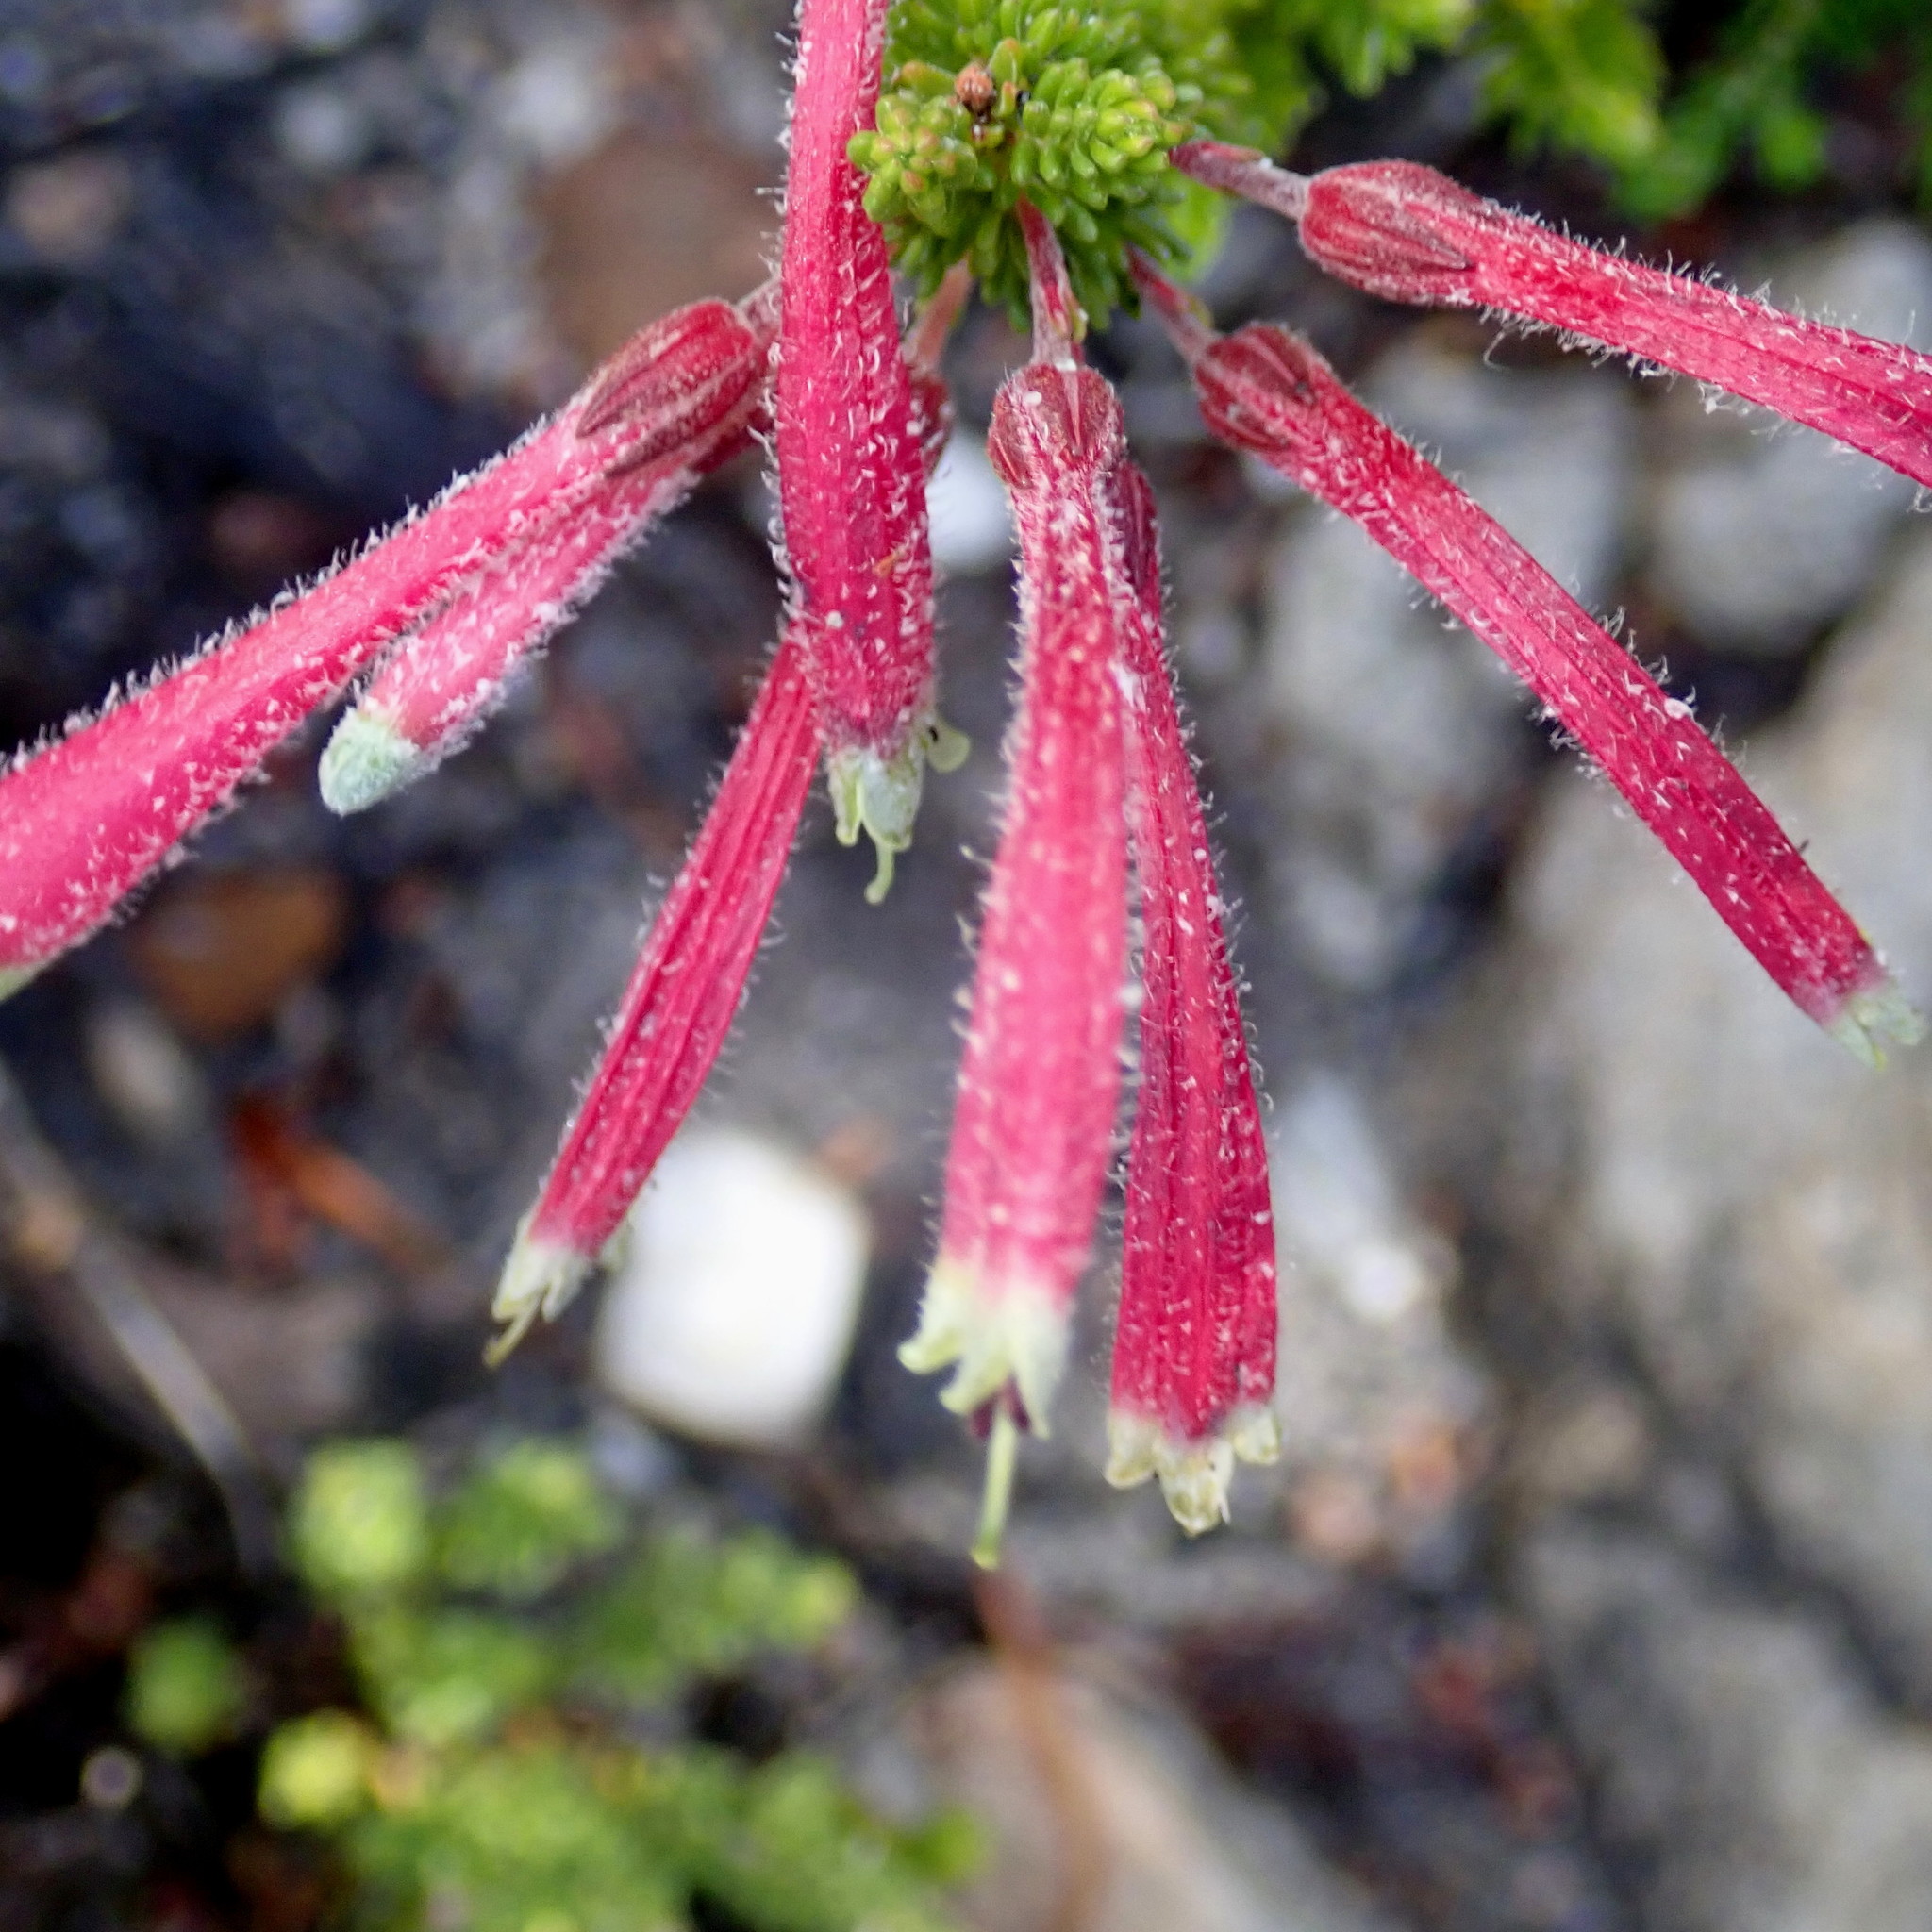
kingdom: Plantae
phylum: Tracheophyta
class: Magnoliopsida
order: Ericales
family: Ericaceae
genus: Erica
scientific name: Erica densifolia
